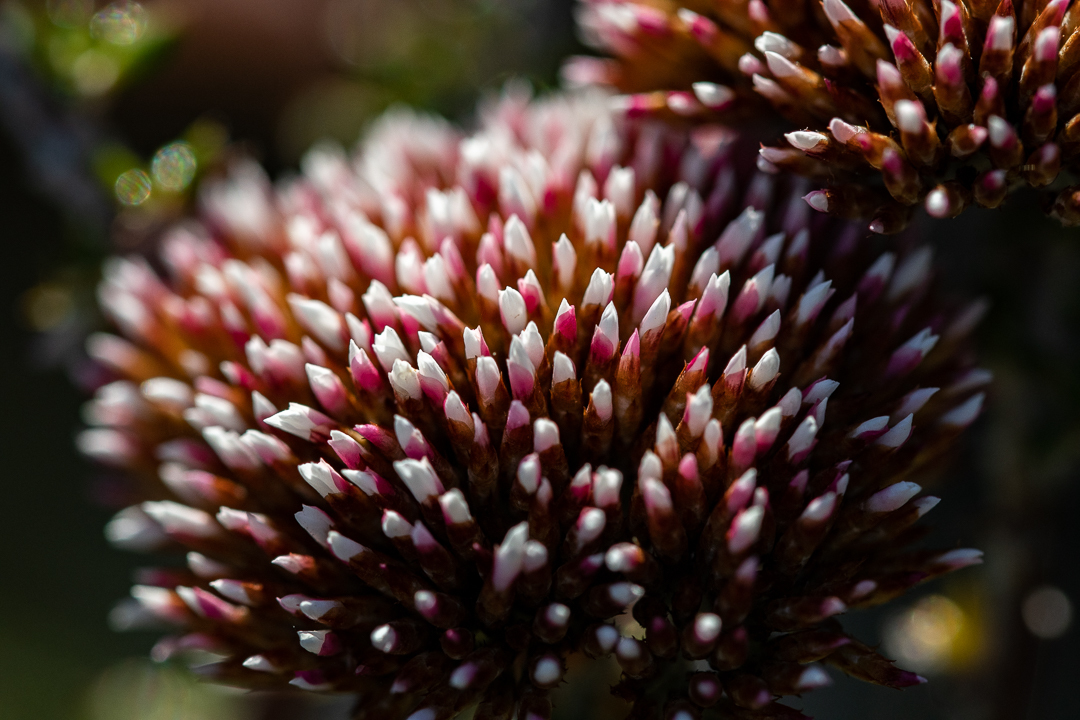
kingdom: Plantae
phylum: Tracheophyta
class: Magnoliopsida
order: Asterales
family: Asteraceae
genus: Metalasia
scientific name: Metalasia densa
